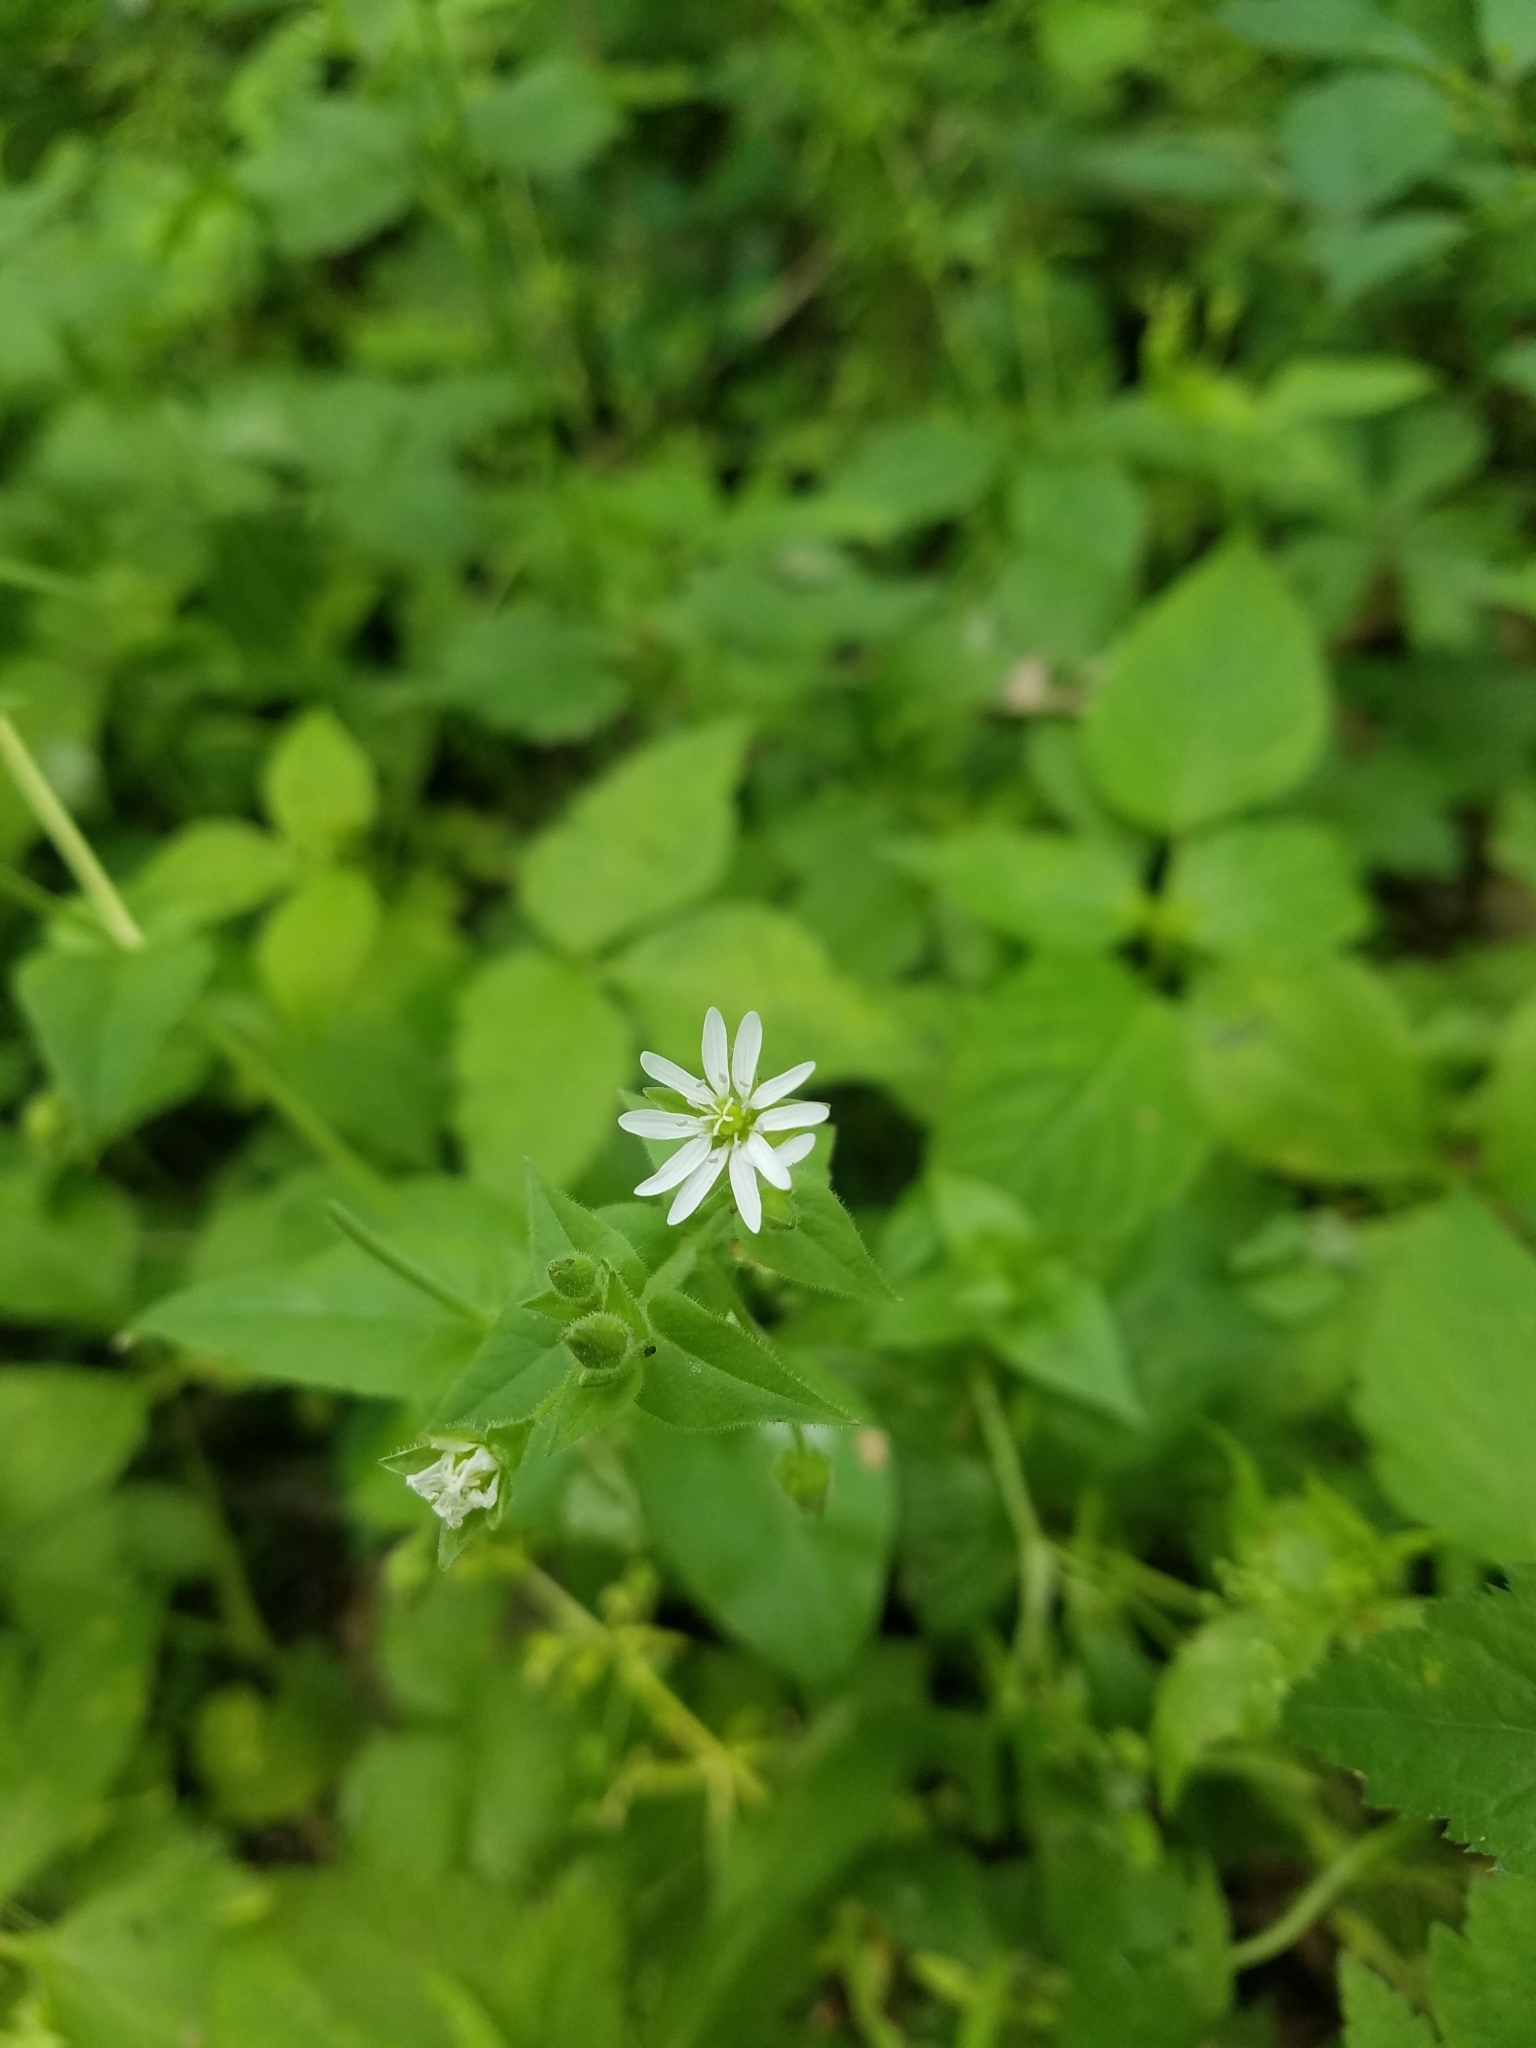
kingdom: Plantae
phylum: Tracheophyta
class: Magnoliopsida
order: Caryophyllales
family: Caryophyllaceae
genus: Stellaria
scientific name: Stellaria aquatica
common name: Water chickweed
